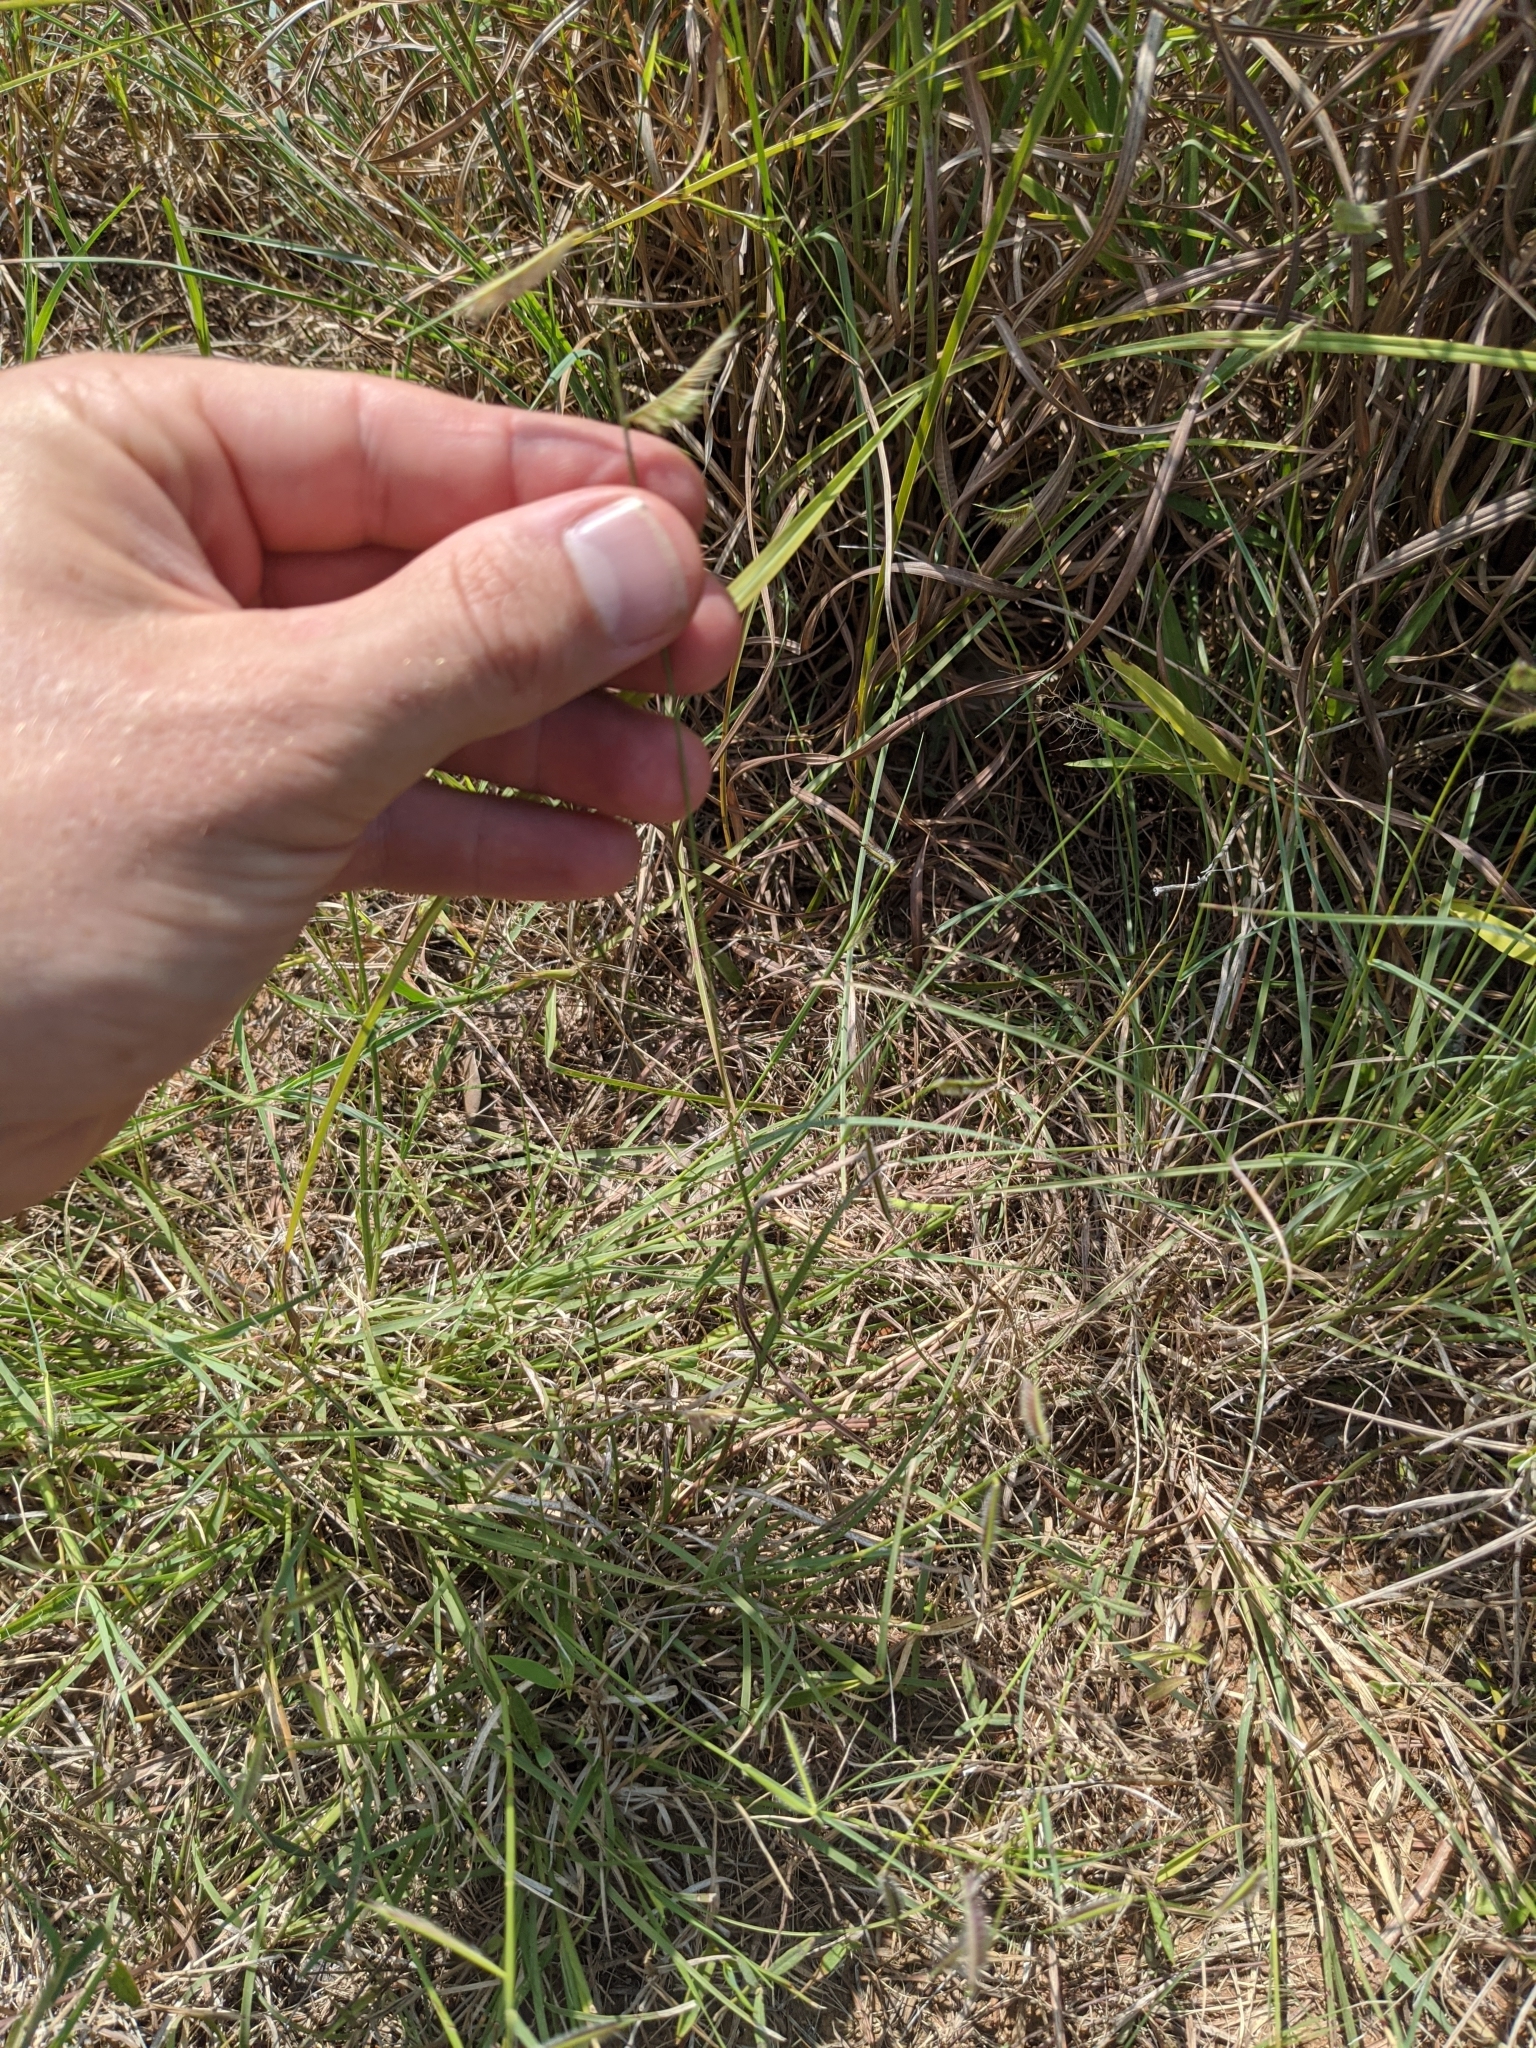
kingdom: Plantae
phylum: Tracheophyta
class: Liliopsida
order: Poales
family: Poaceae
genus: Bouteloua
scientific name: Bouteloua hirsuta
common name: Hairy grama
